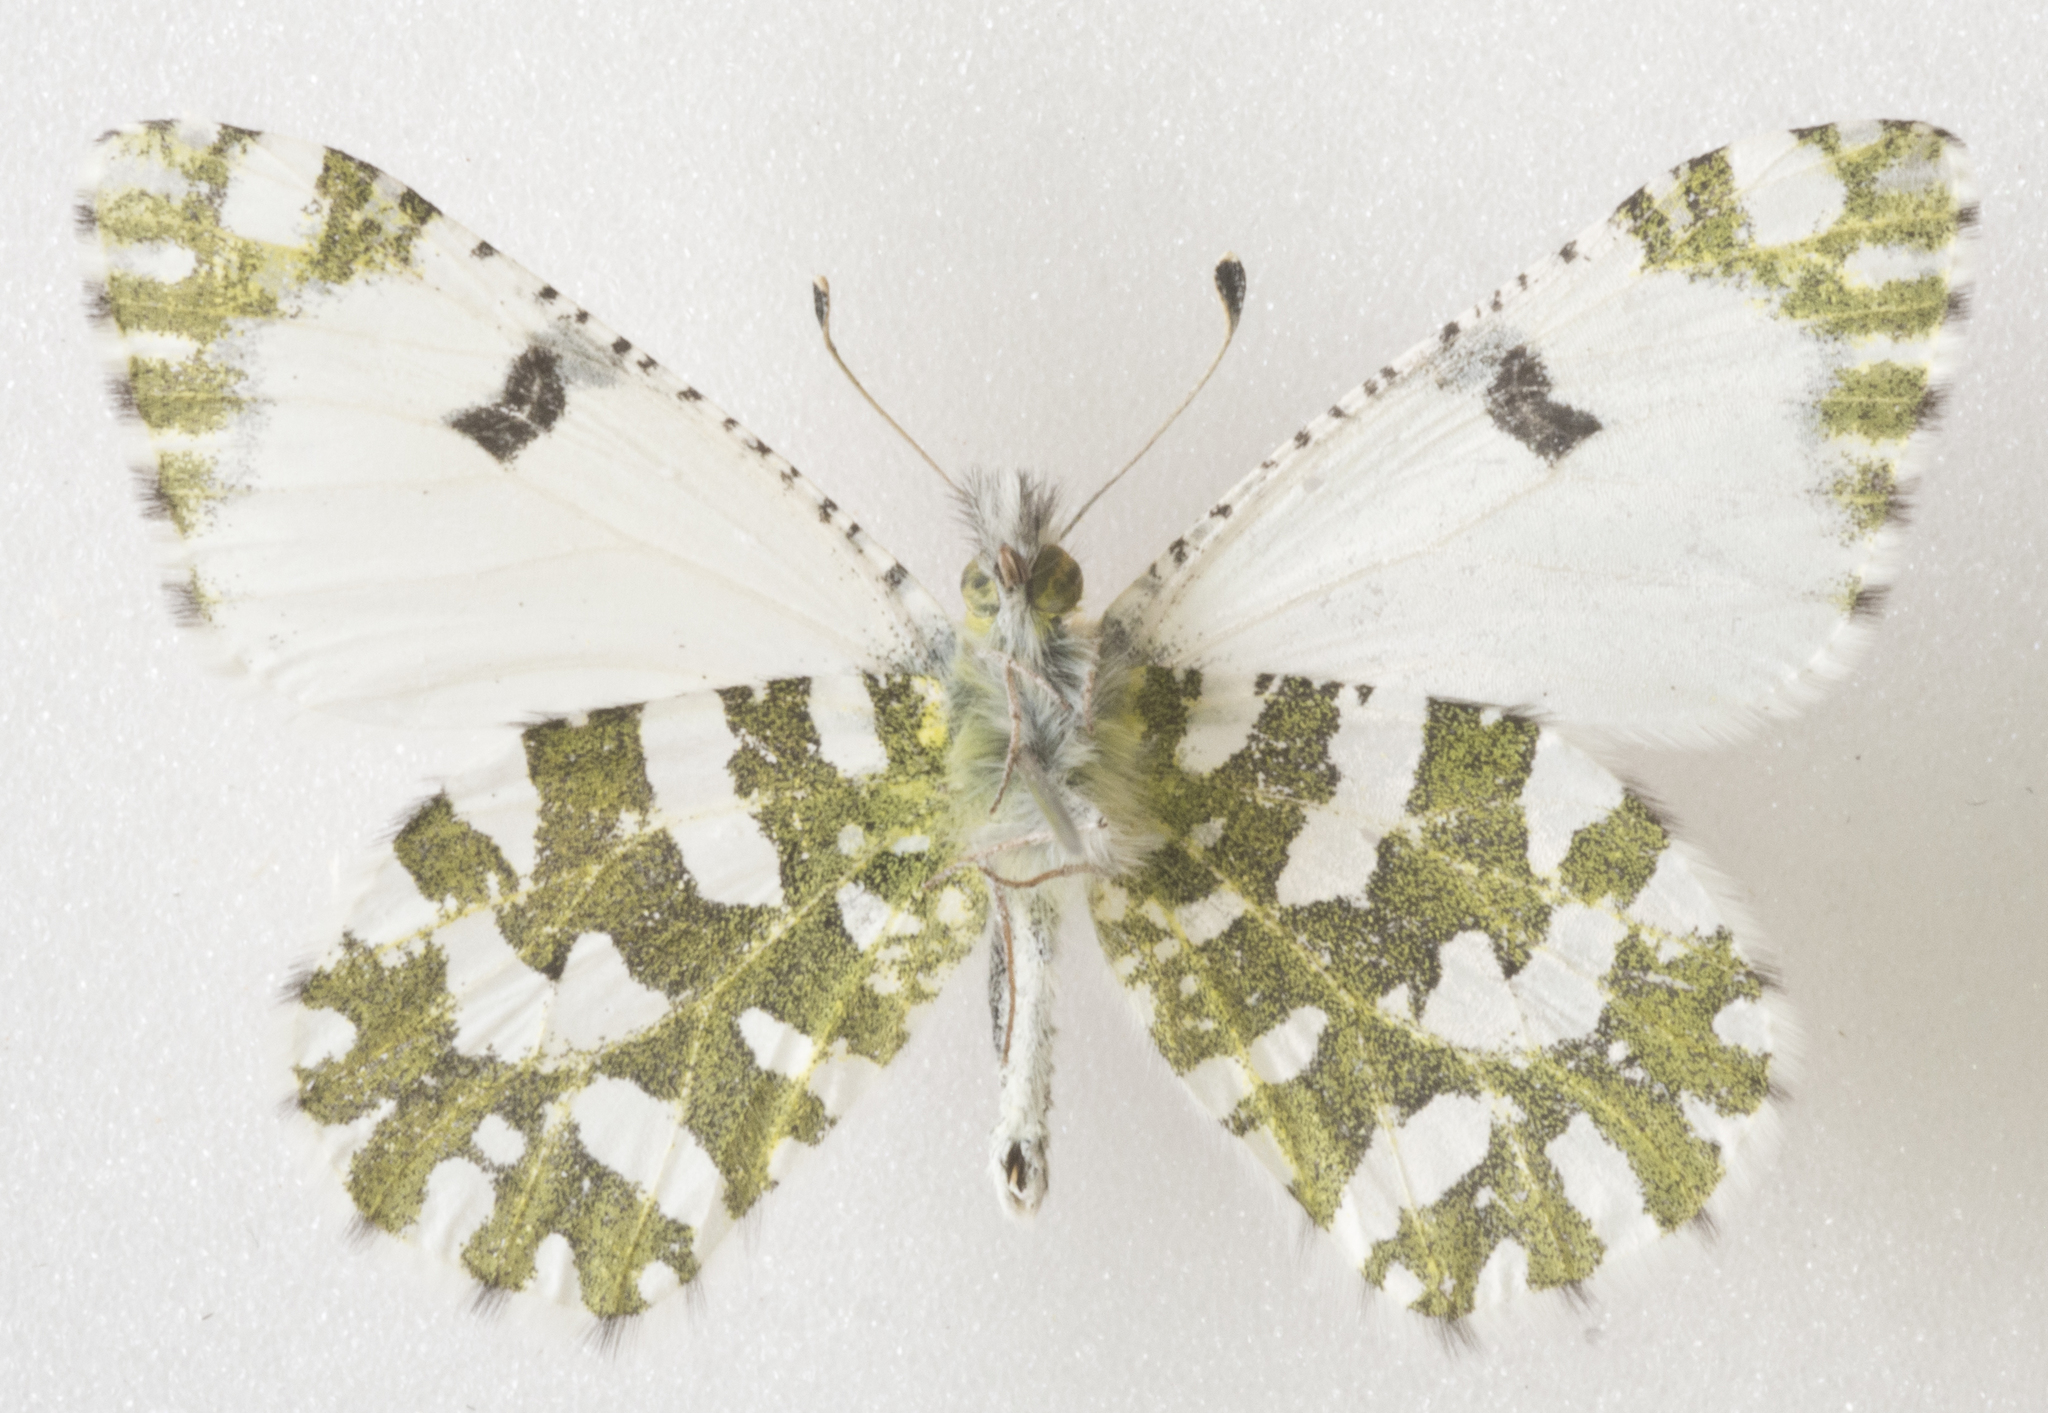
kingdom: Animalia
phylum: Arthropoda
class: Insecta
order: Lepidoptera
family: Pieridae
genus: Euchloe
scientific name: Euchloe lotta
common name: Desert marble
